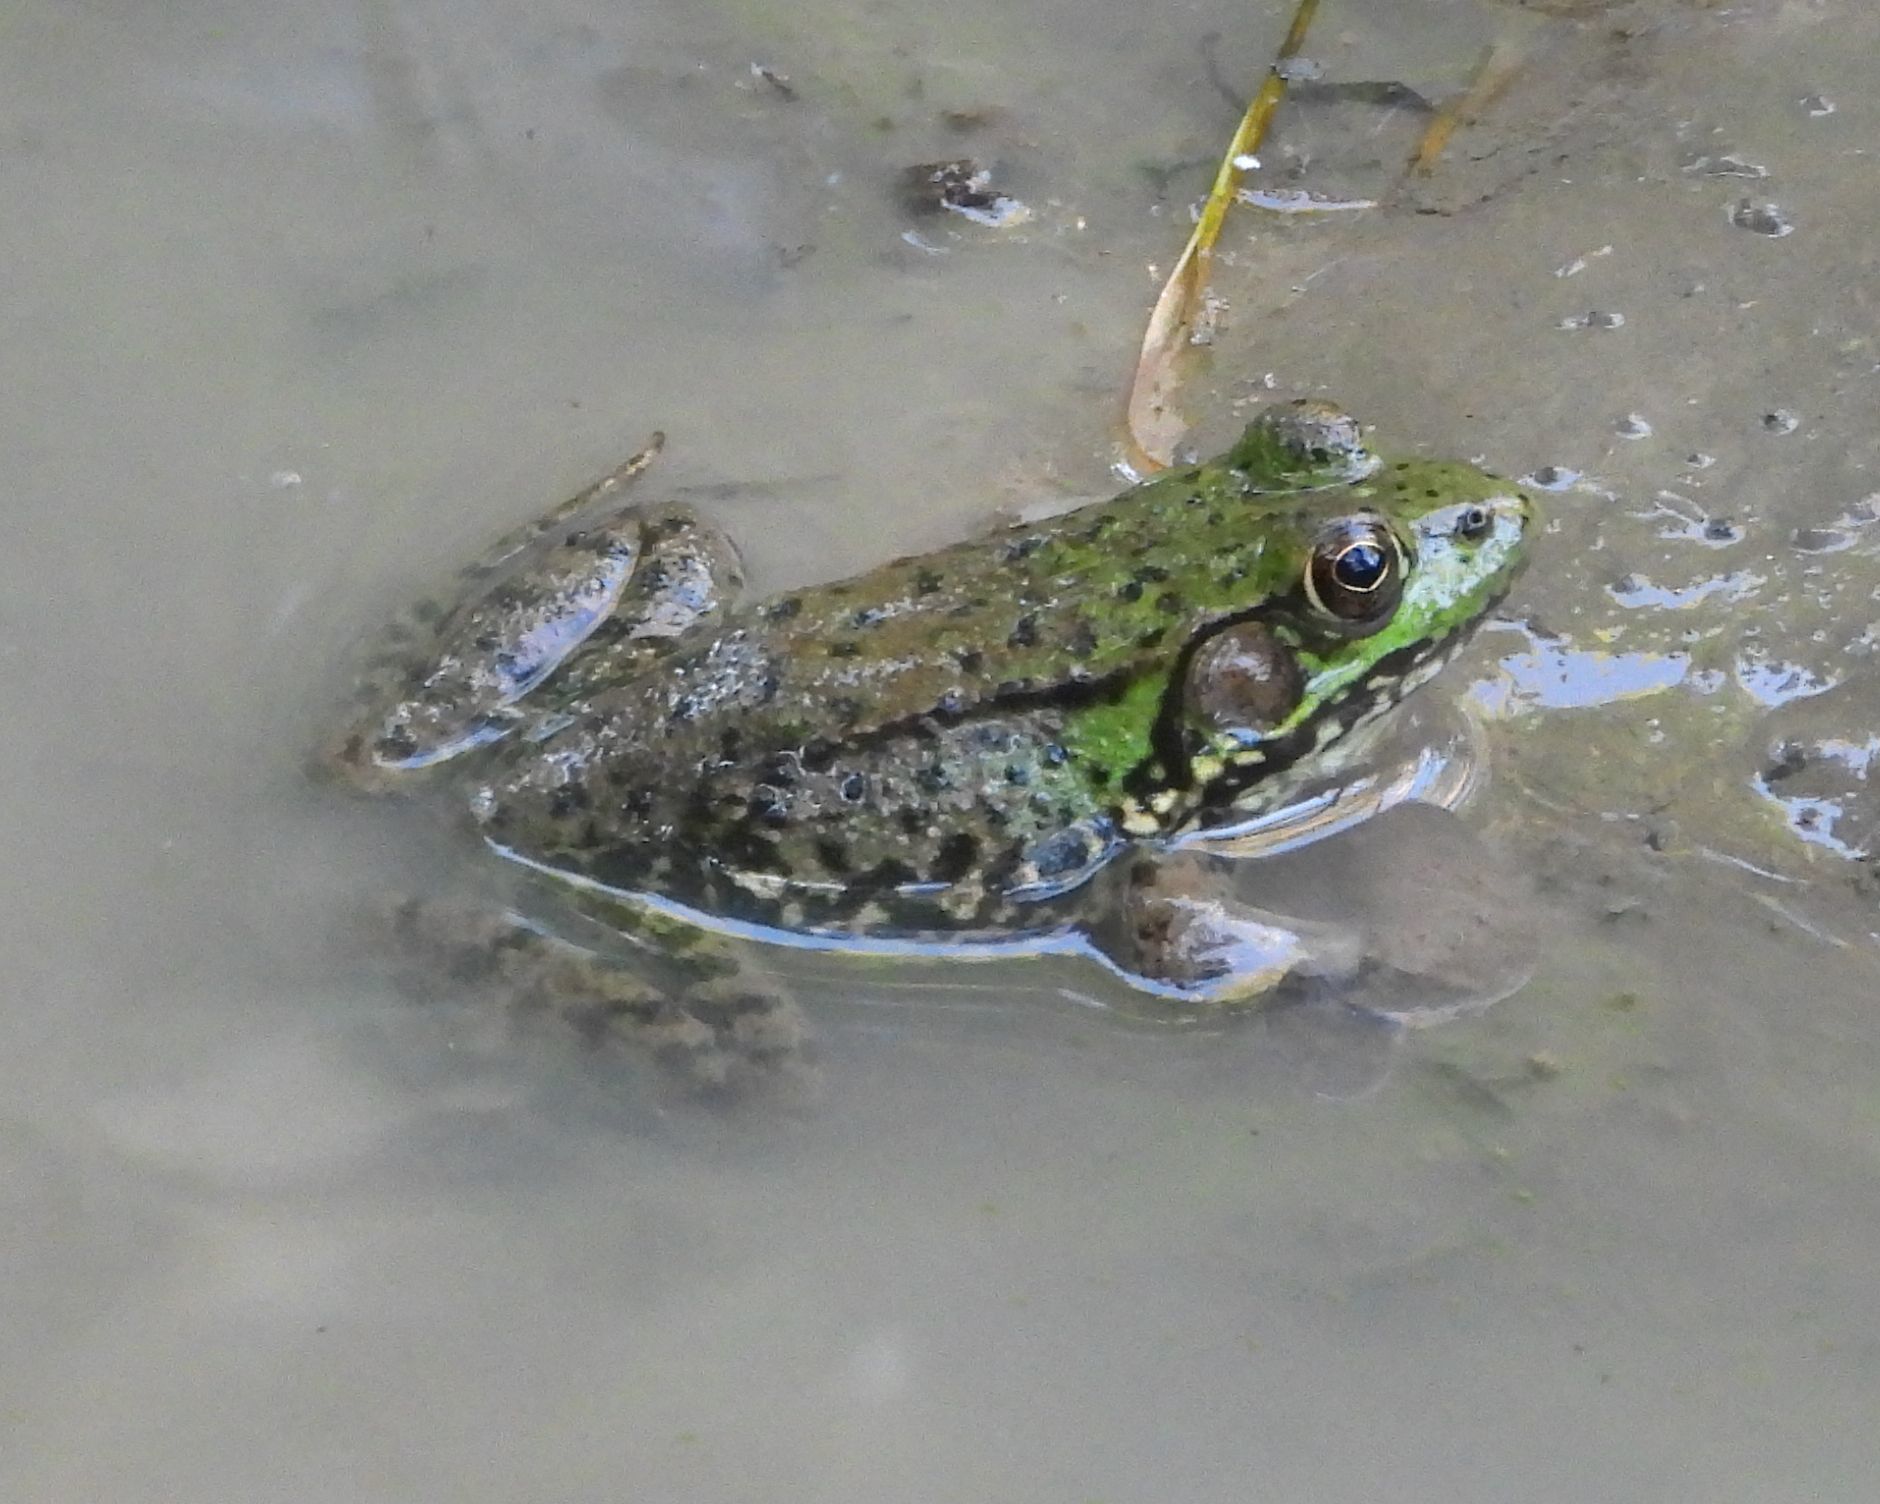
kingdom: Animalia
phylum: Chordata
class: Amphibia
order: Anura
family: Ranidae
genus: Lithobates
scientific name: Lithobates clamitans
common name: Green frog
